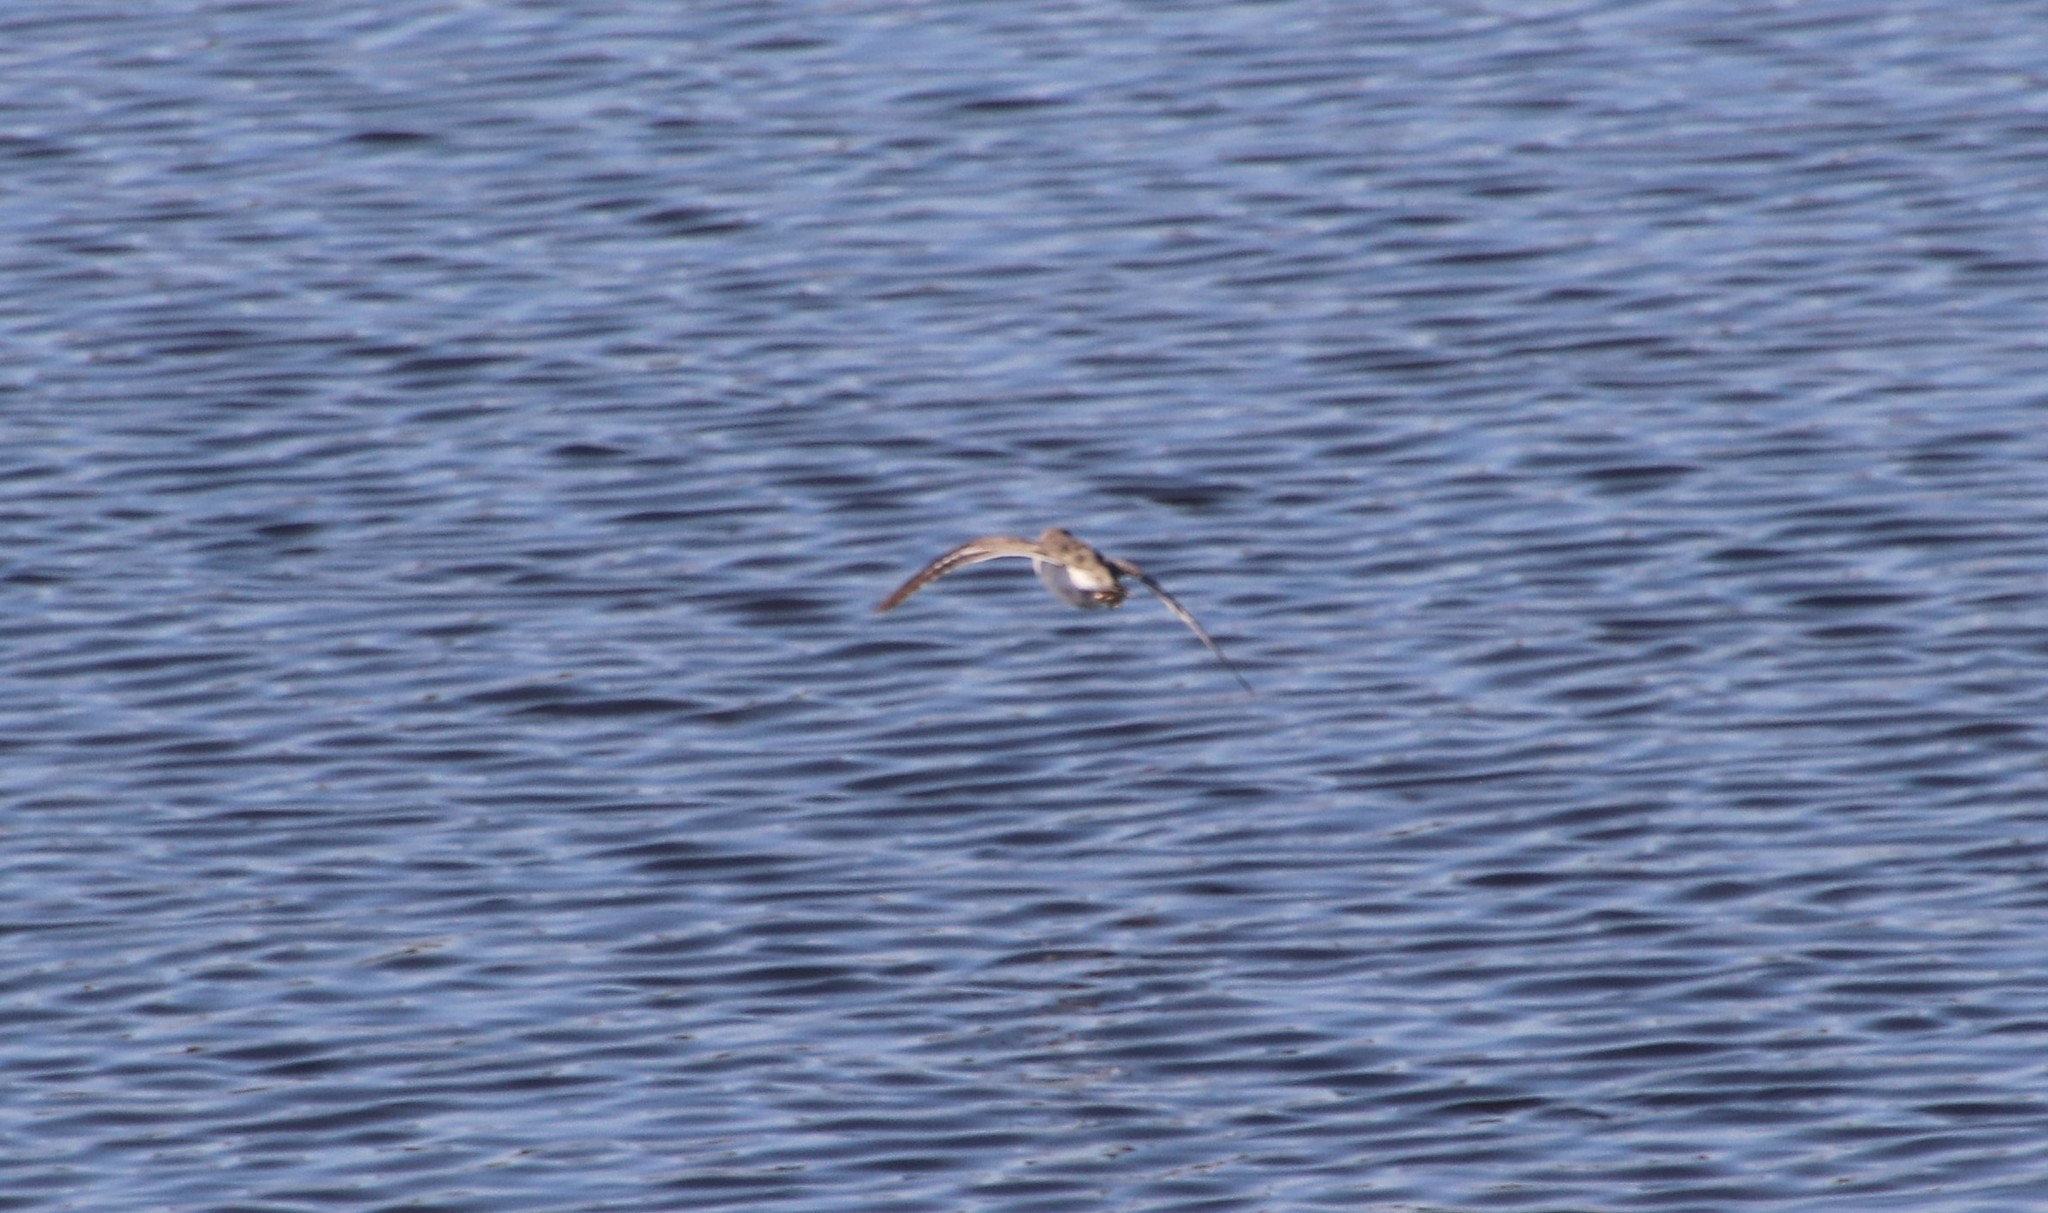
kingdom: Animalia
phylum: Chordata
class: Aves
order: Charadriiformes
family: Scolopacidae
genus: Actitis
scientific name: Actitis macularius
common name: Spotted sandpiper
